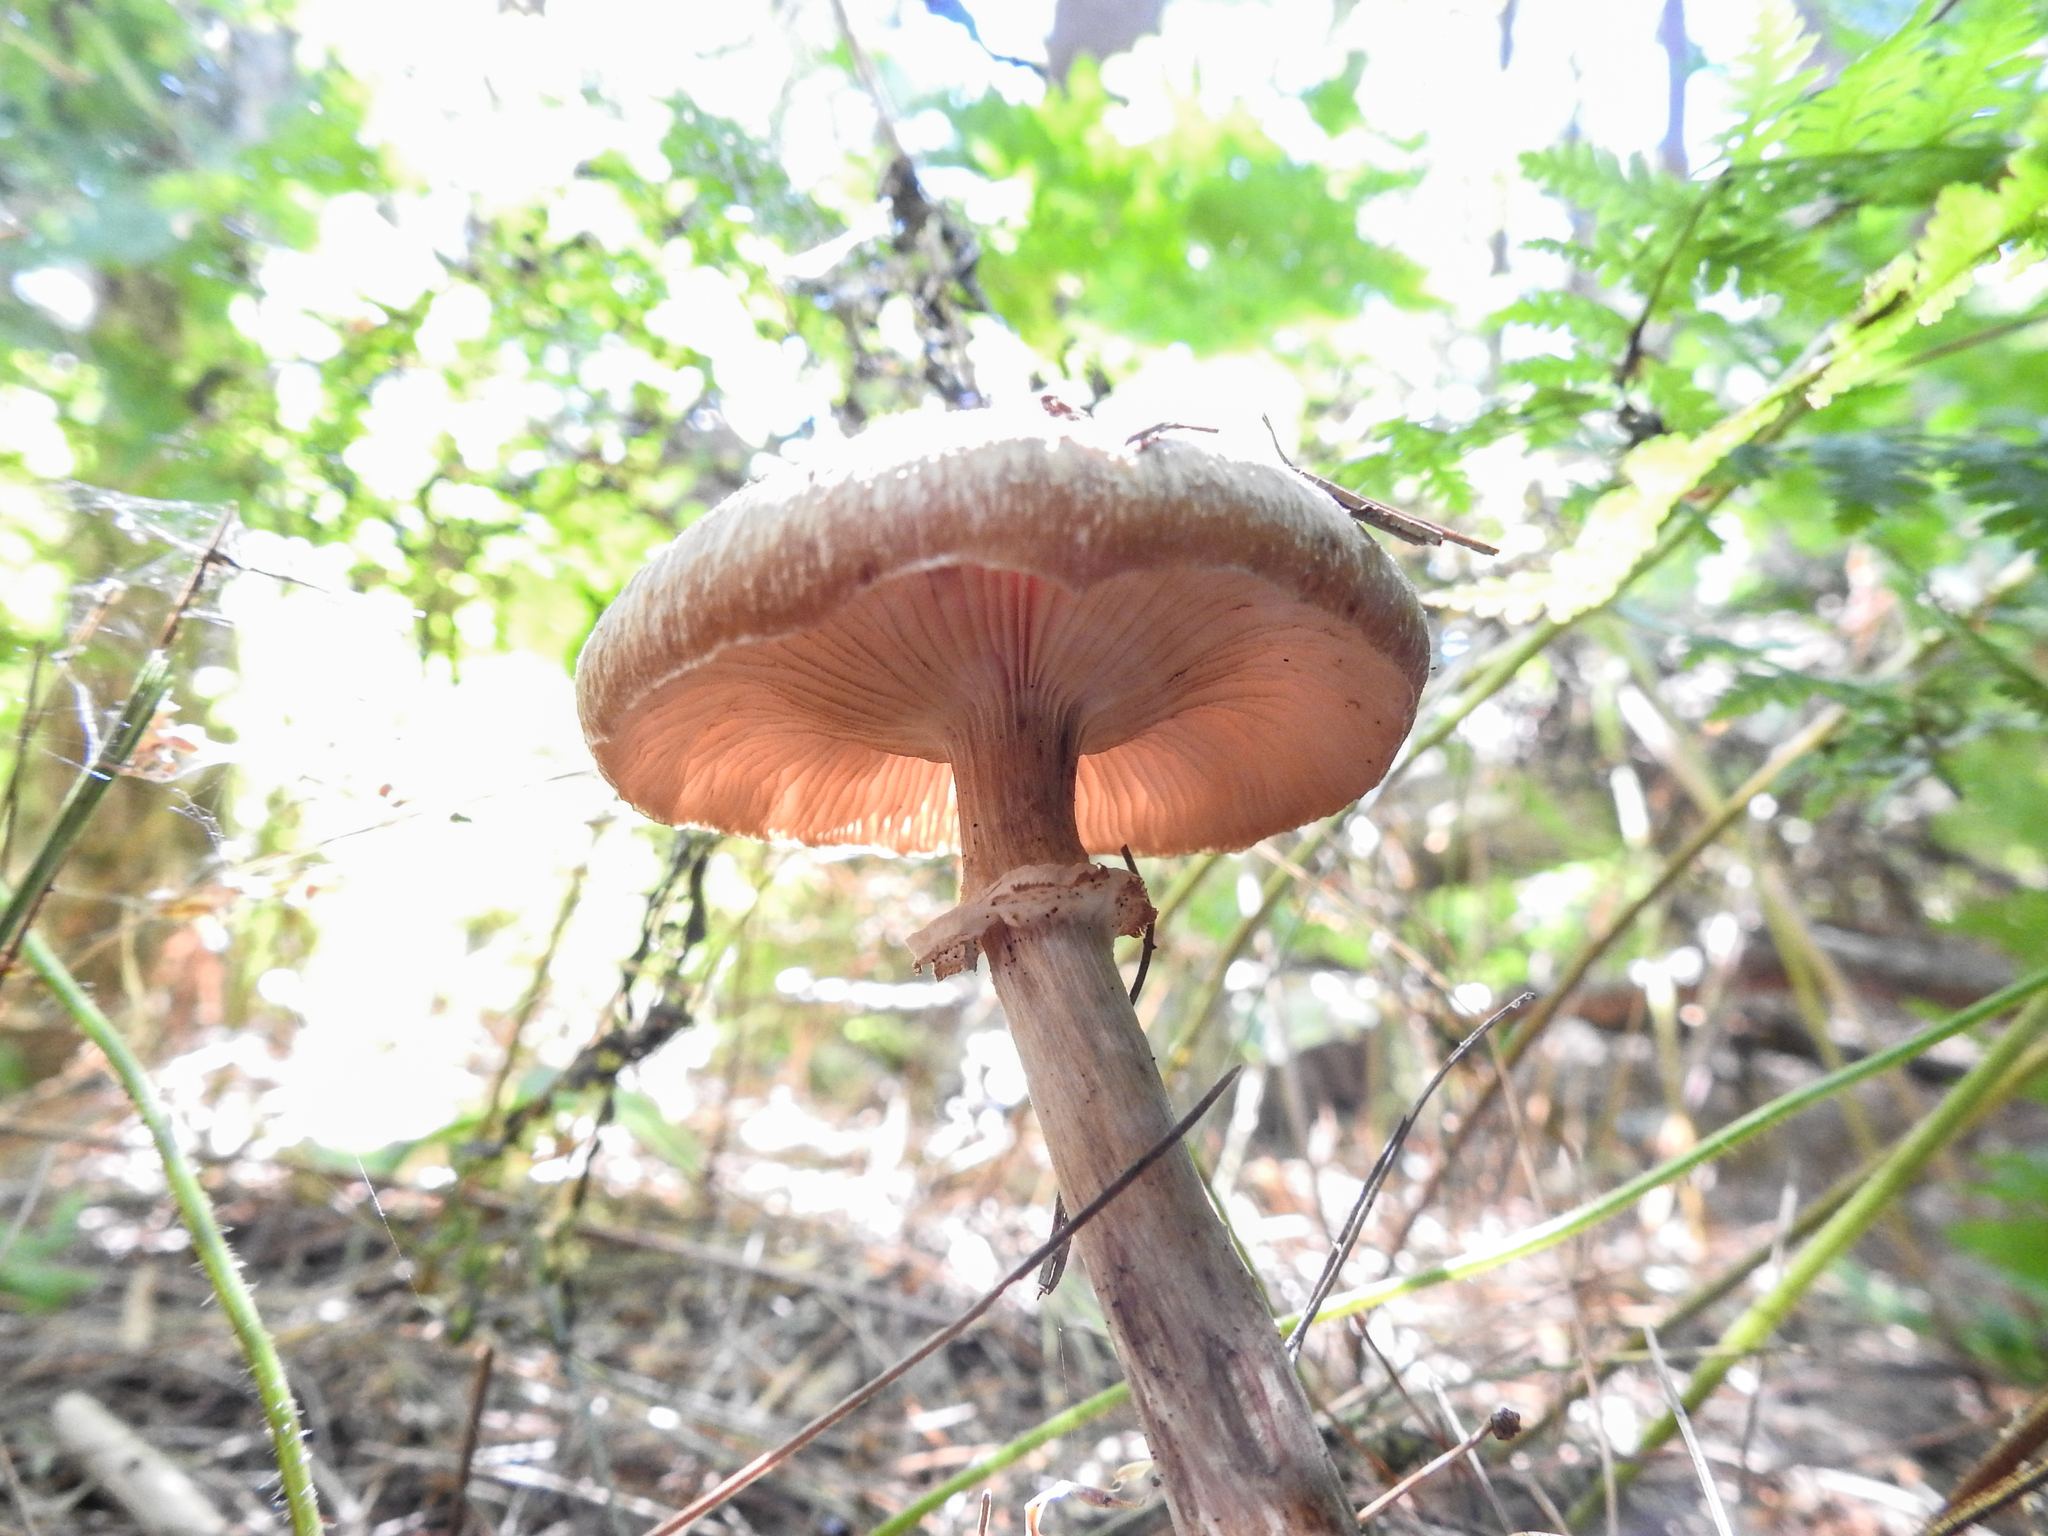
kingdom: Fungi
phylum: Basidiomycota
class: Agaricomycetes
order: Agaricales
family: Physalacriaceae
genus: Desarmillaria
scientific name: Desarmillaria caespitosa
